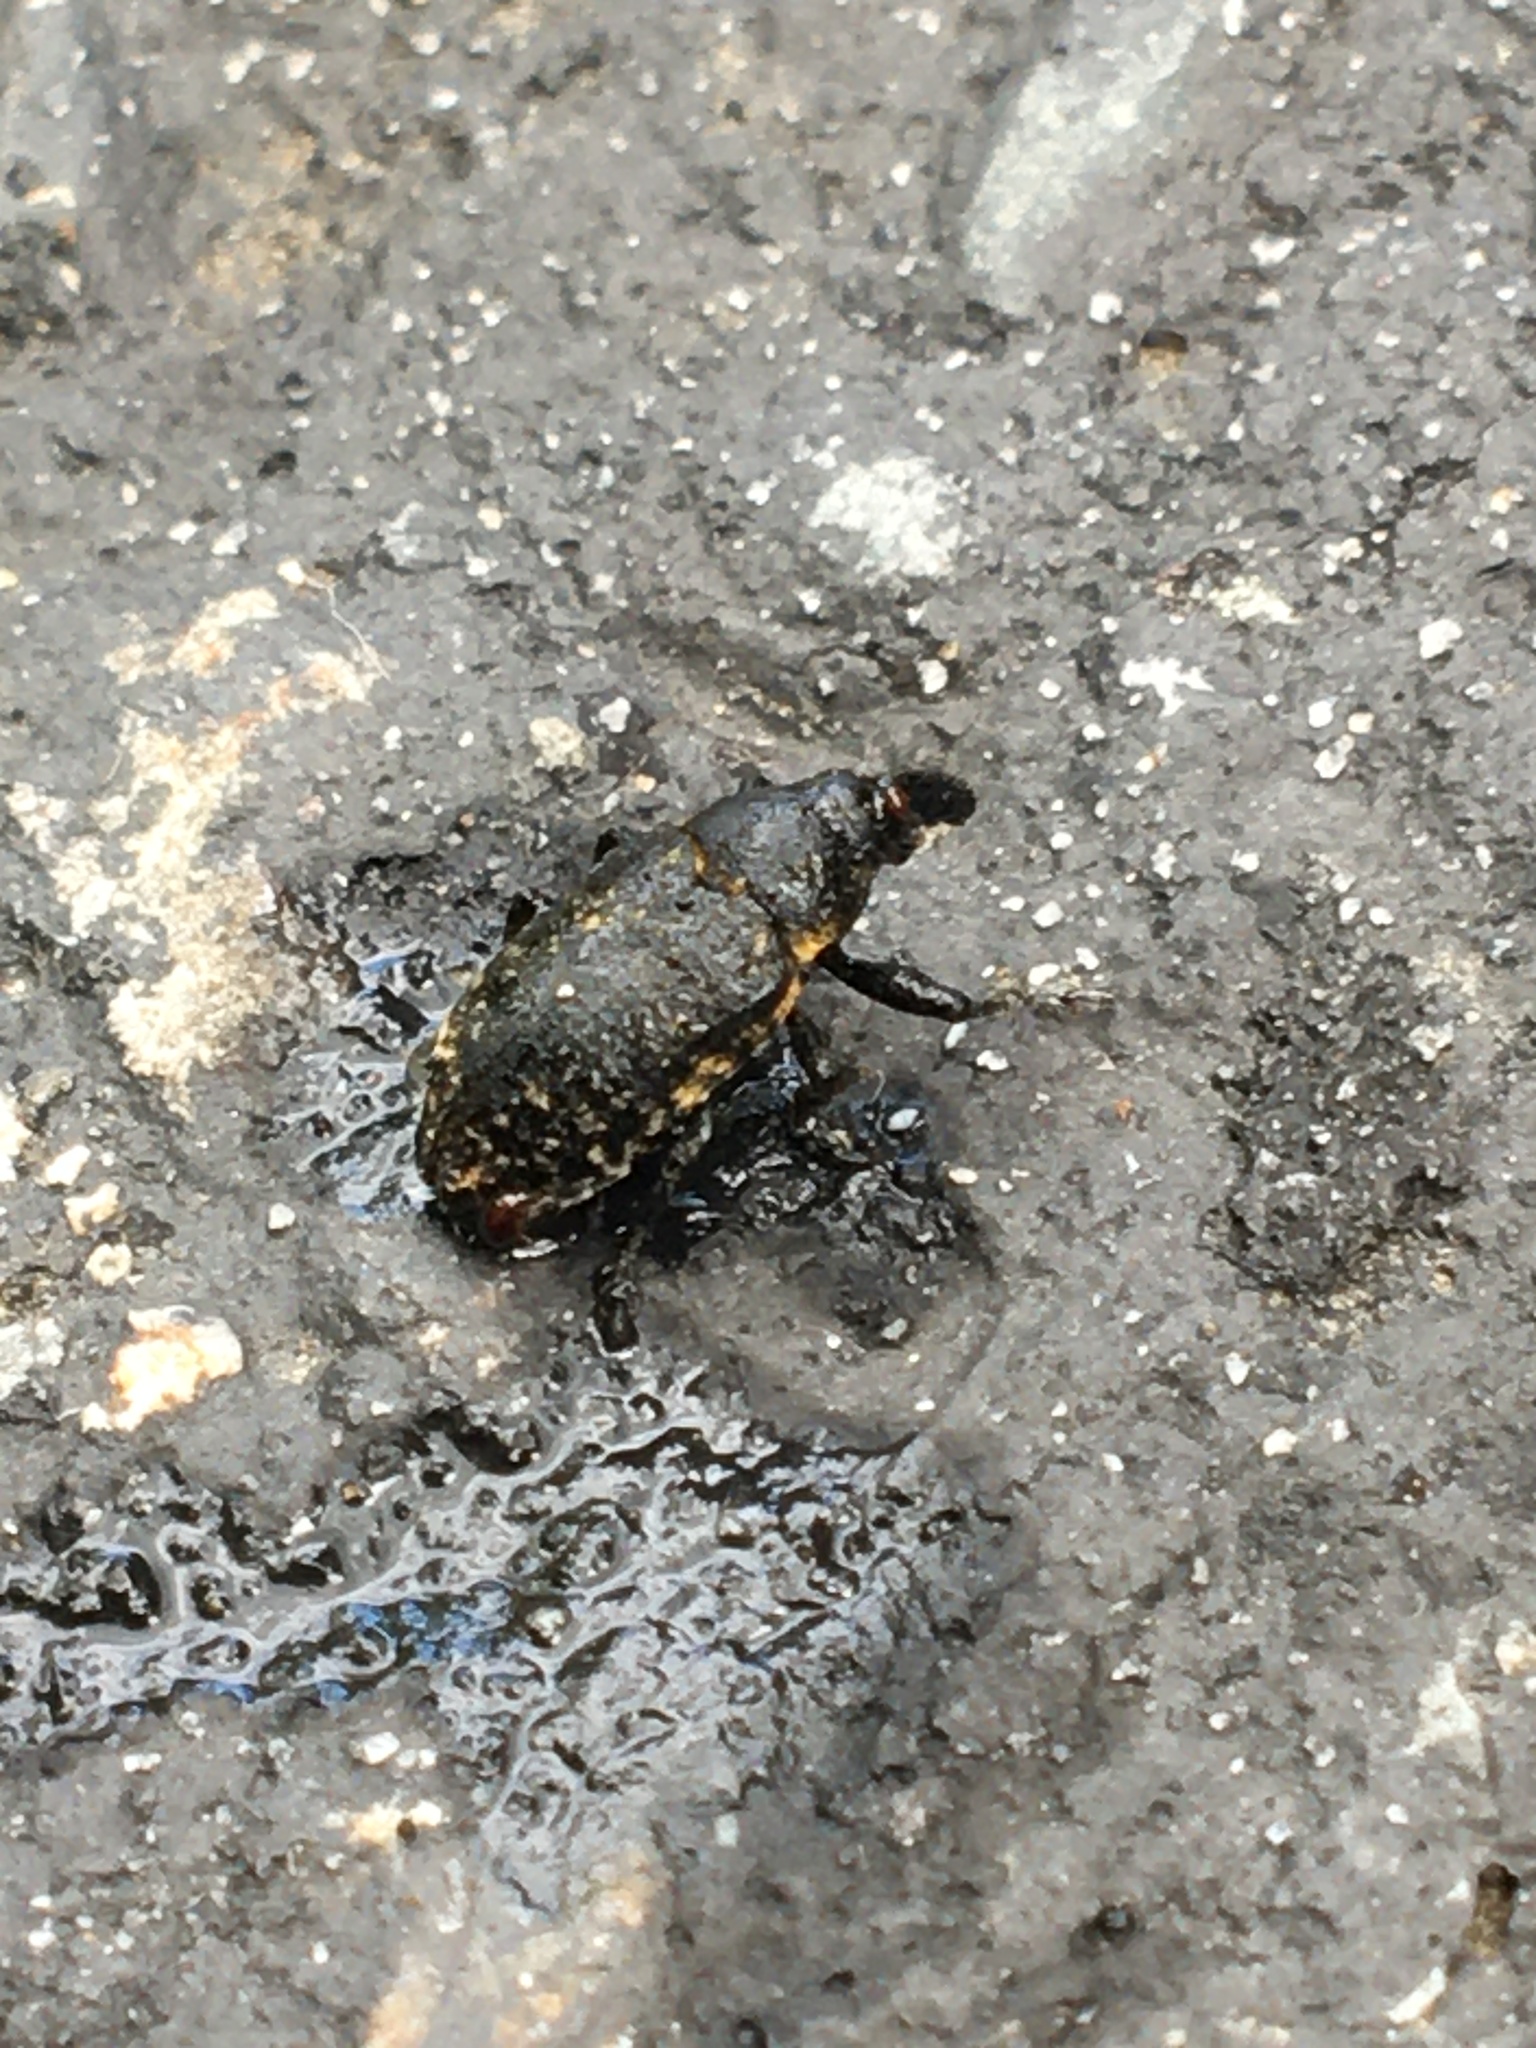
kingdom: Animalia
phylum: Arthropoda
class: Insecta
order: Coleoptera
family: Curculionidae
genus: Larinus
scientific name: Larinus carlinae
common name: Weevil
